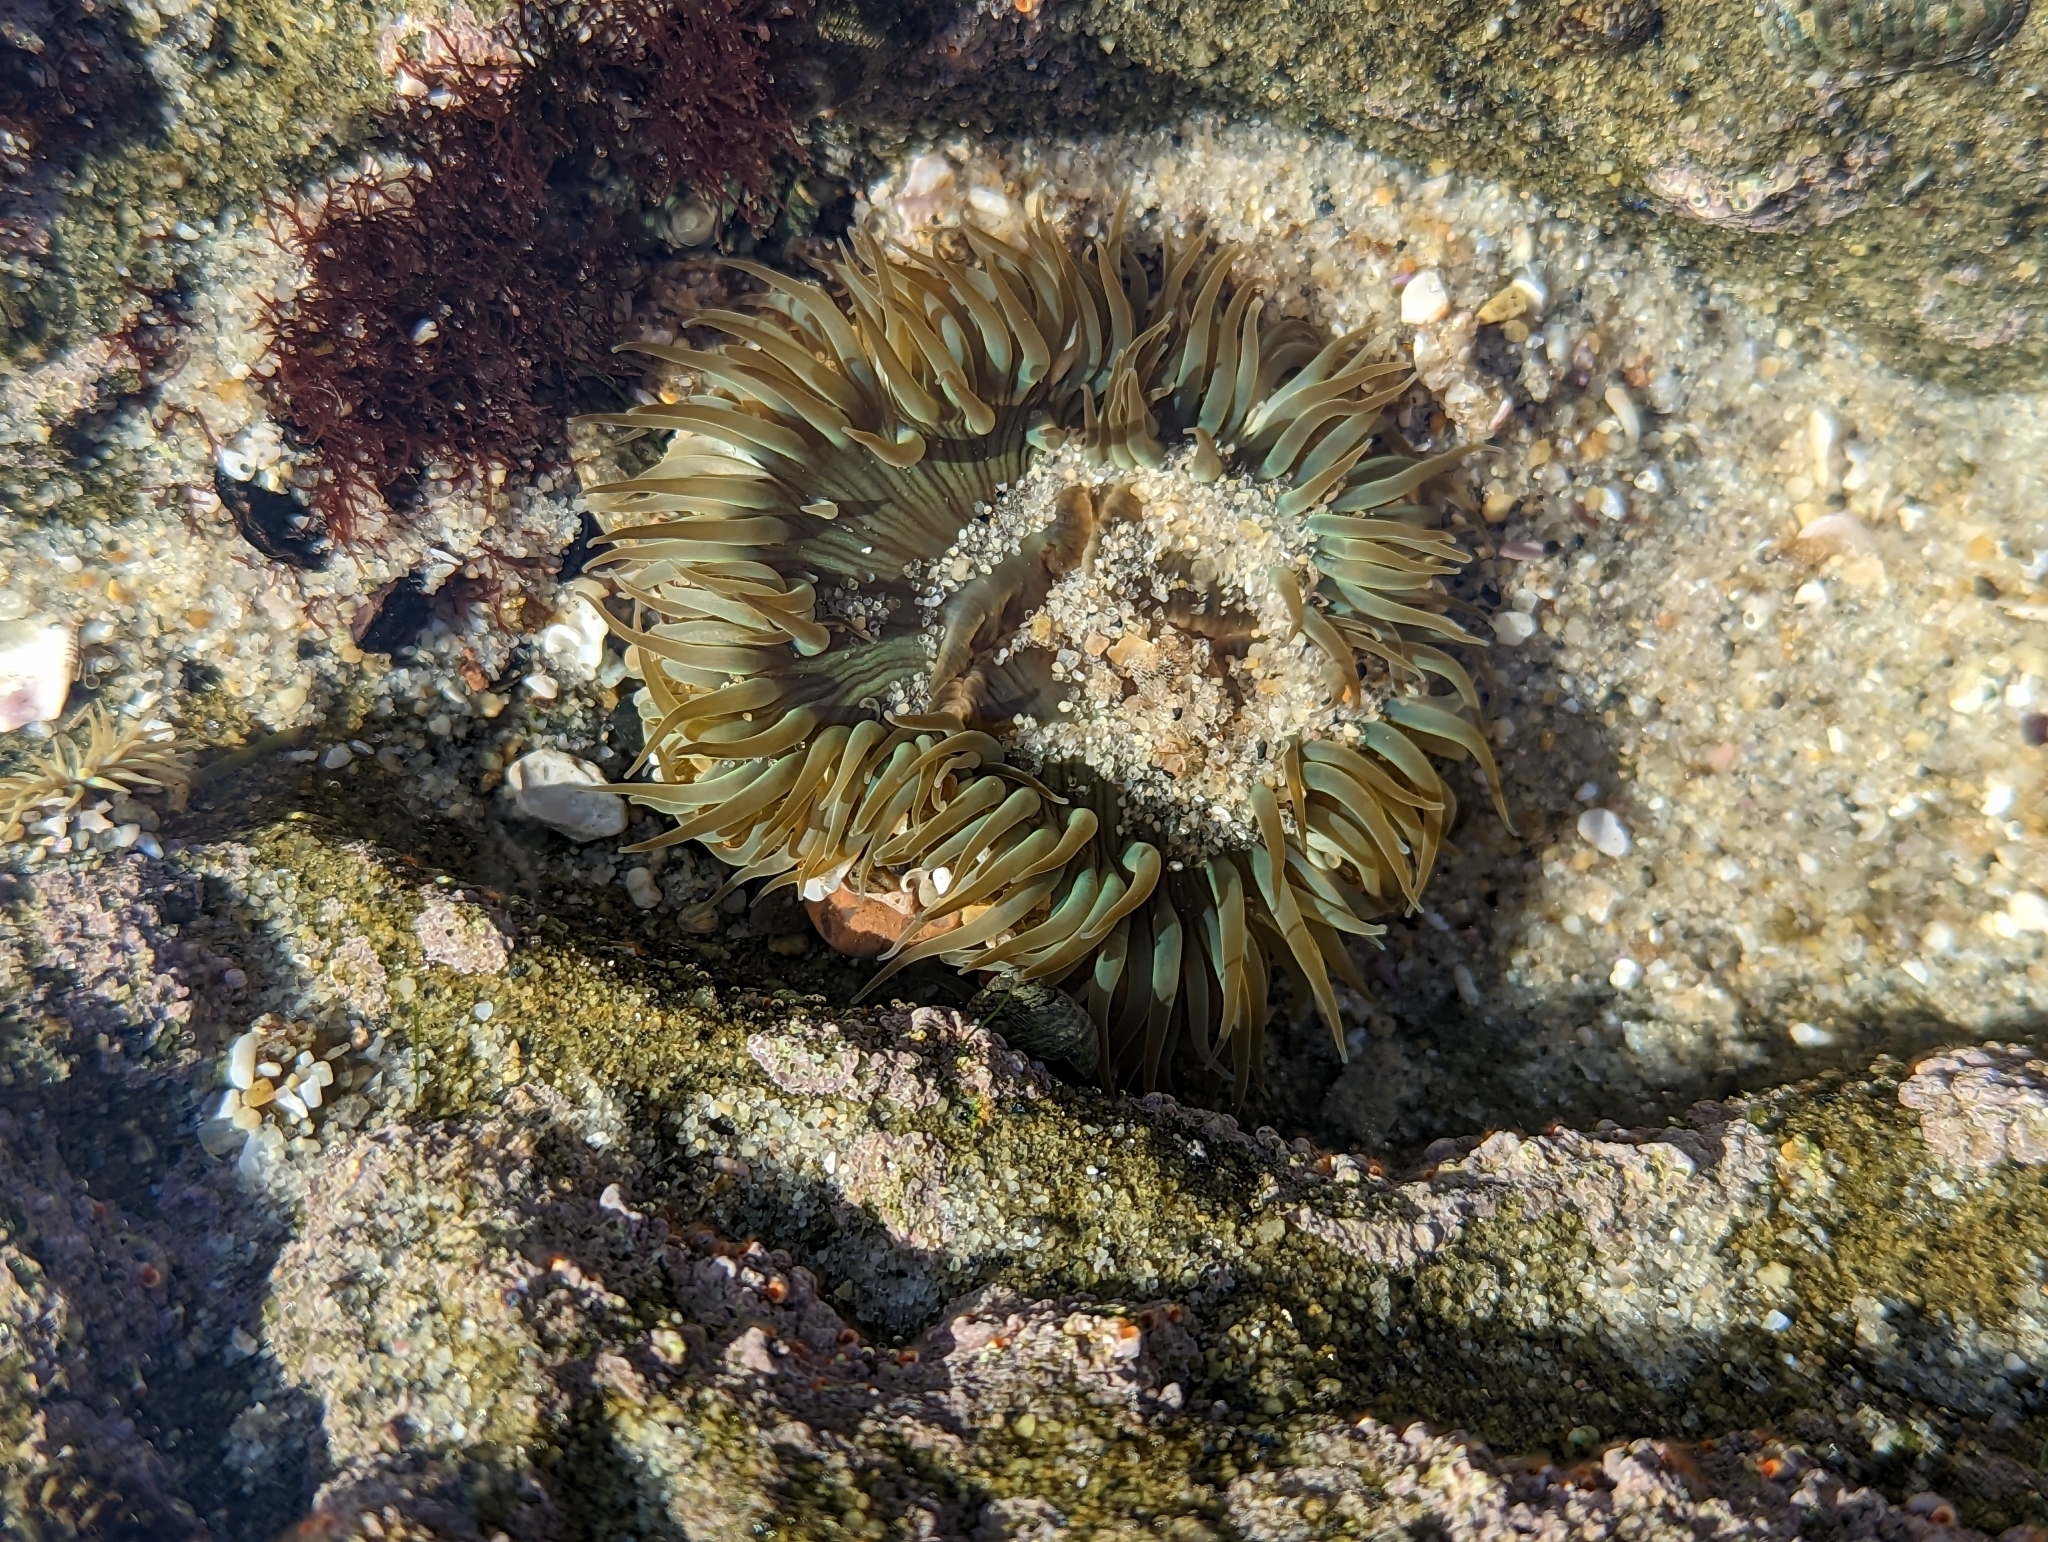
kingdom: Animalia
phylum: Cnidaria
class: Anthozoa
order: Actiniaria
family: Actiniidae
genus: Anthopleura
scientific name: Anthopleura sola
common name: Sun anemone
